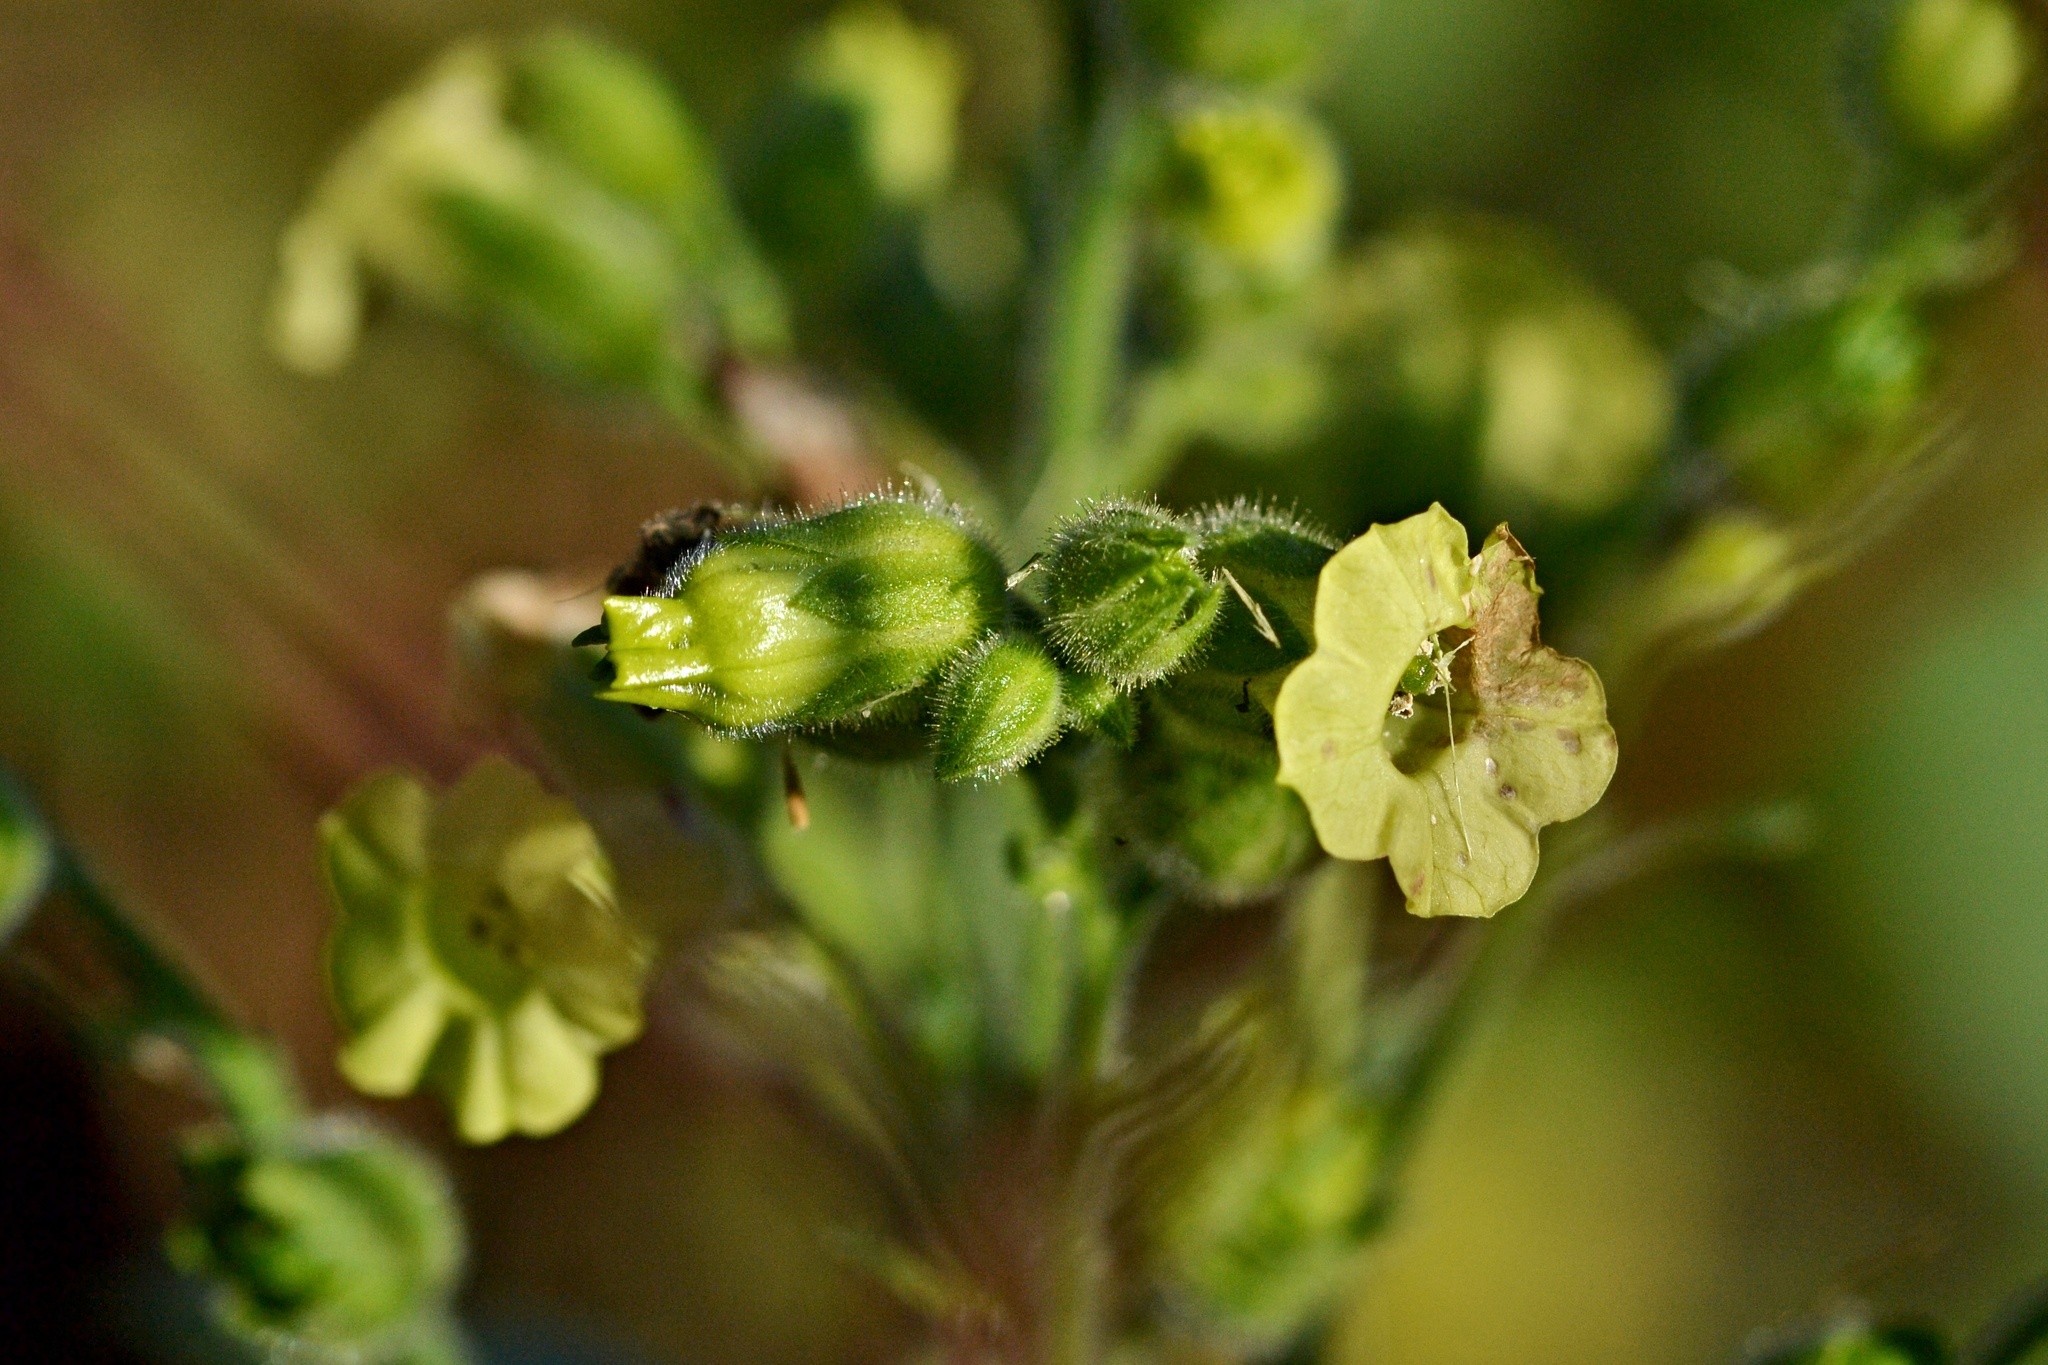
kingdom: Plantae
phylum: Tracheophyta
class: Magnoliopsida
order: Solanales
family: Solanaceae
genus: Nicotiana
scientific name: Nicotiana rustica
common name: Wild tobacco
